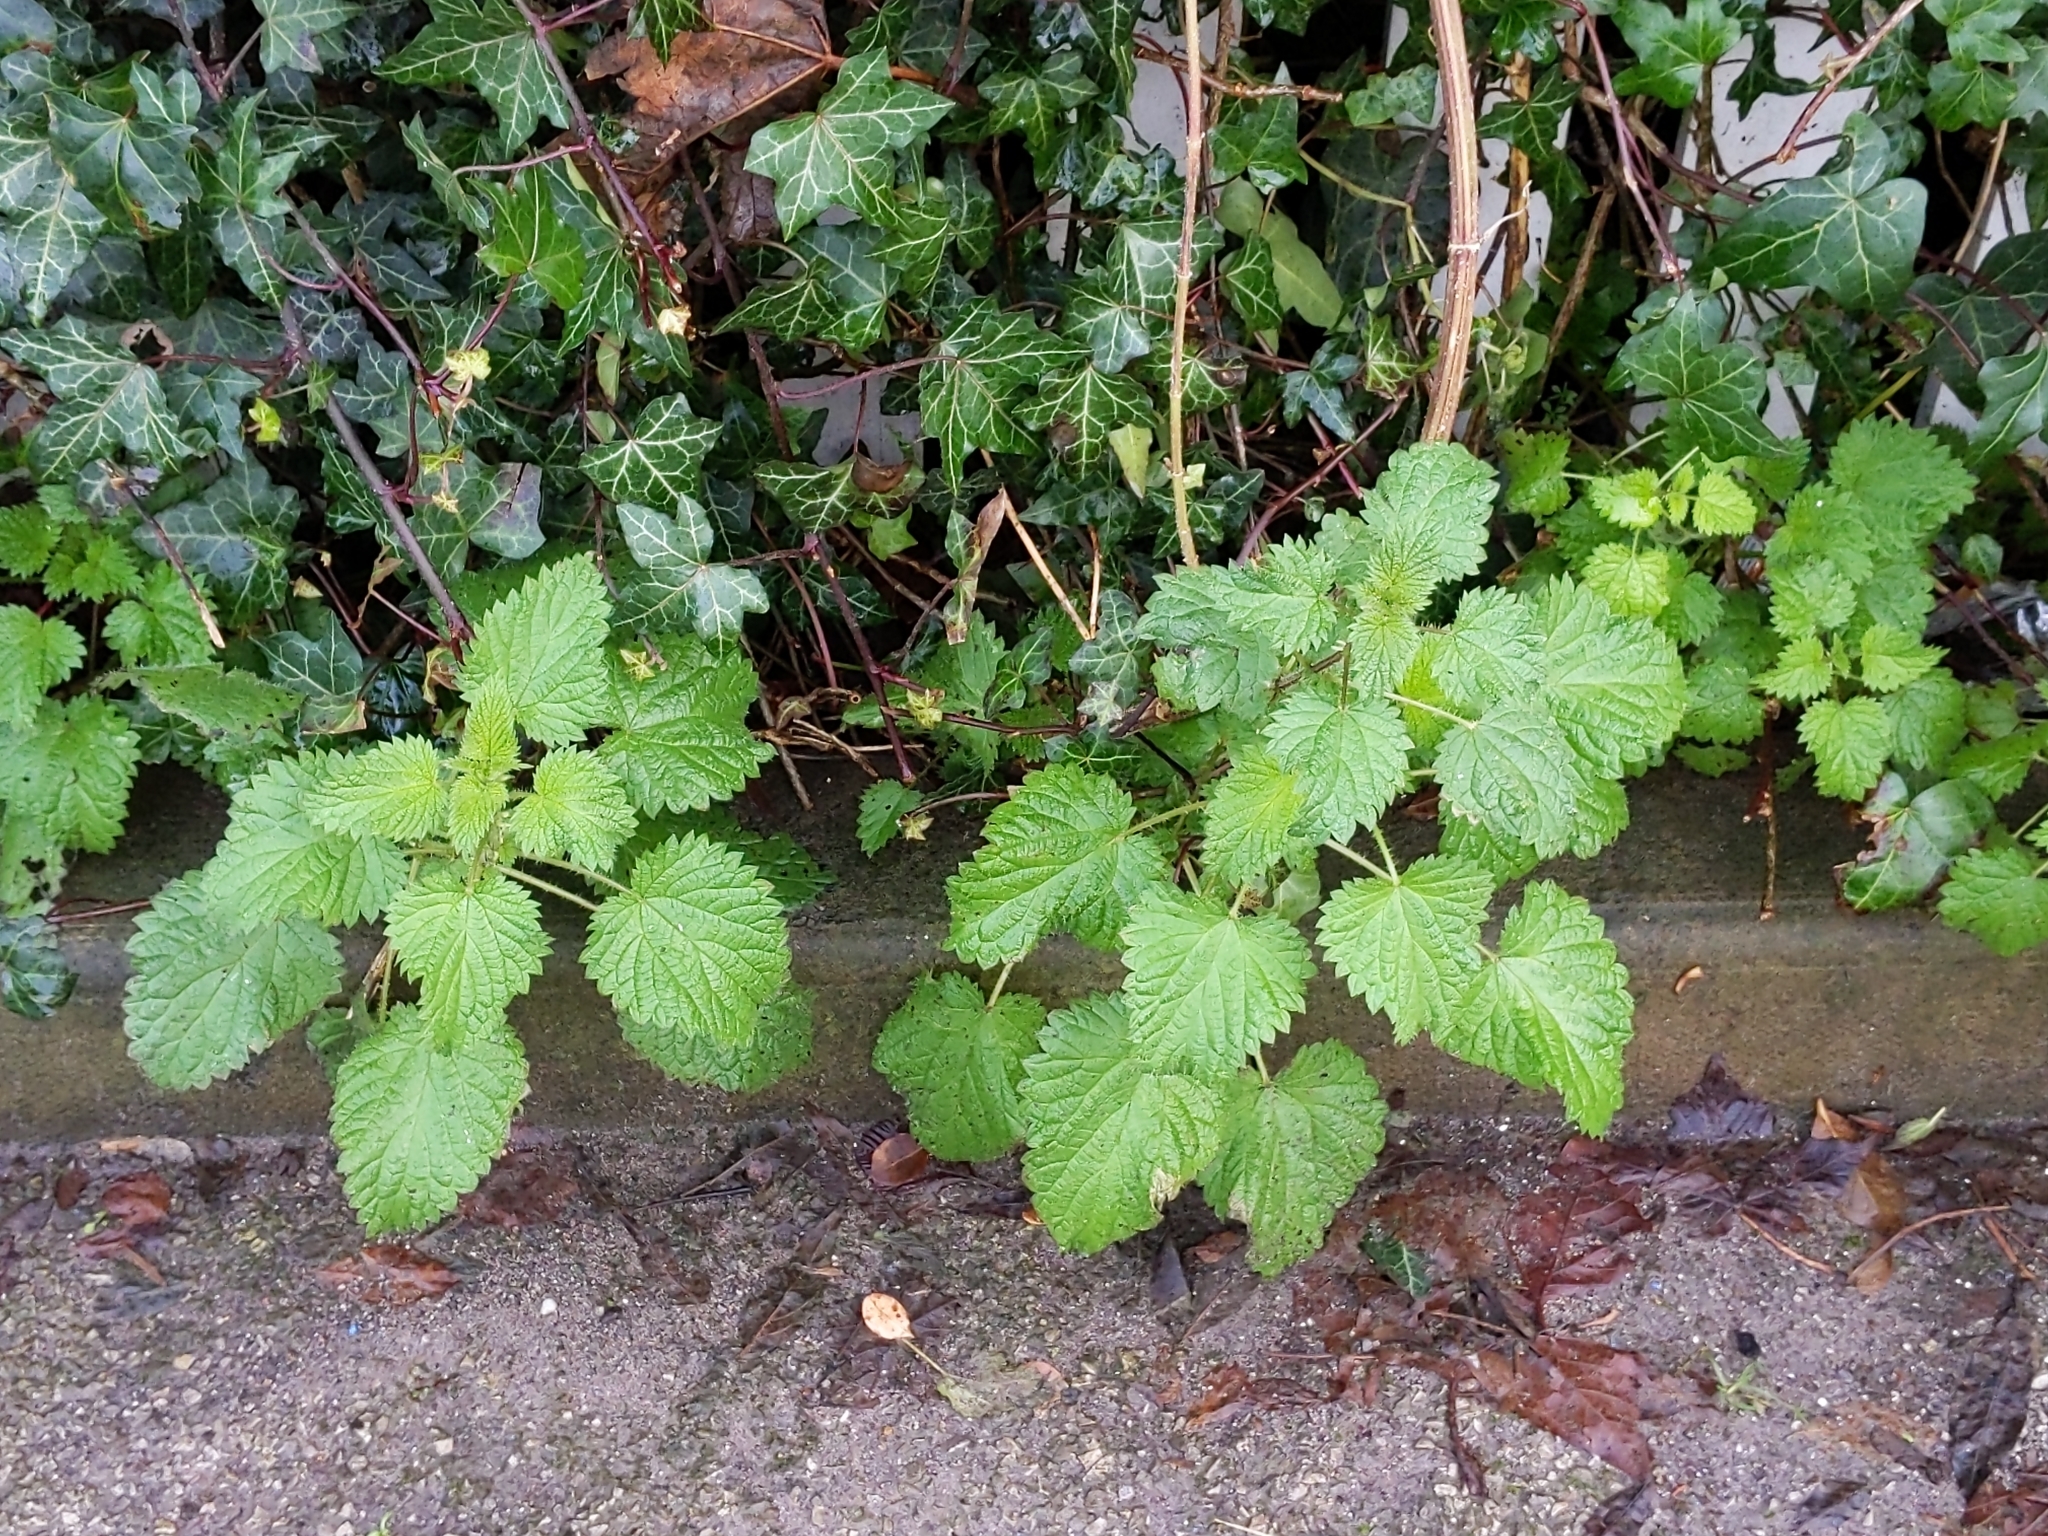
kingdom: Plantae
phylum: Tracheophyta
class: Magnoliopsida
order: Rosales
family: Urticaceae
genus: Urtica
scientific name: Urtica dioica
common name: Common nettle
